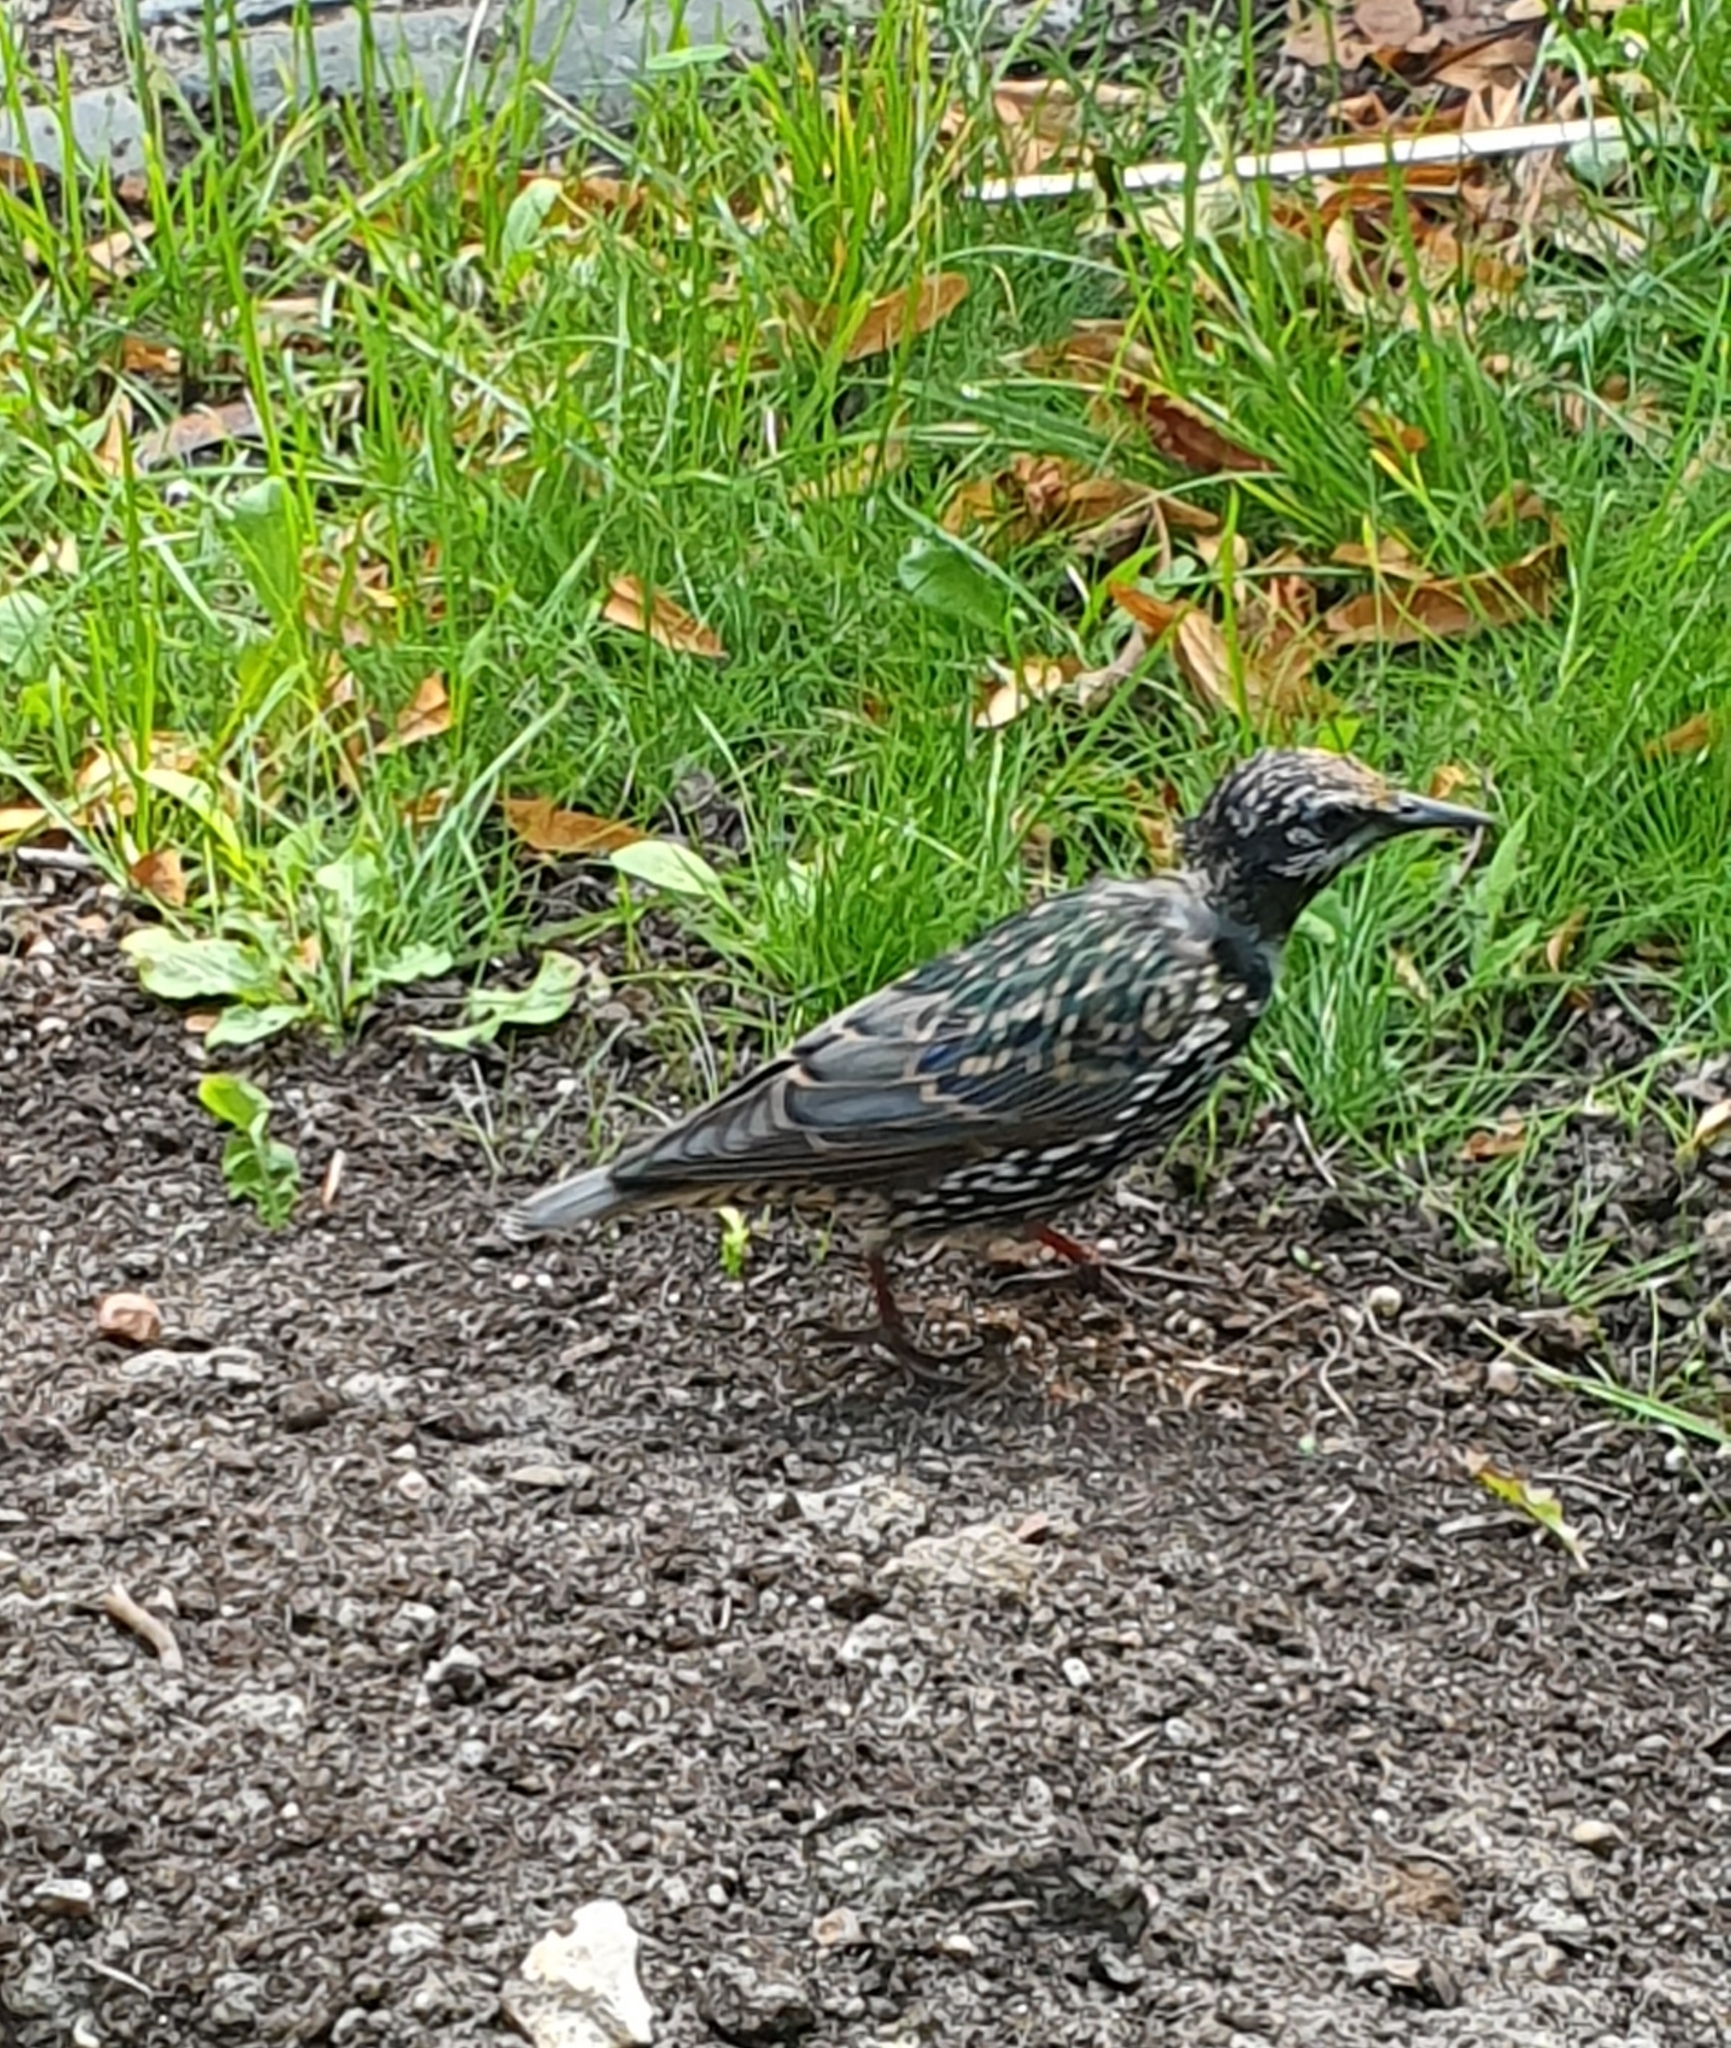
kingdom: Animalia
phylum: Chordata
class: Aves
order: Passeriformes
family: Sturnidae
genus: Sturnus
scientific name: Sturnus vulgaris
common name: Common starling
